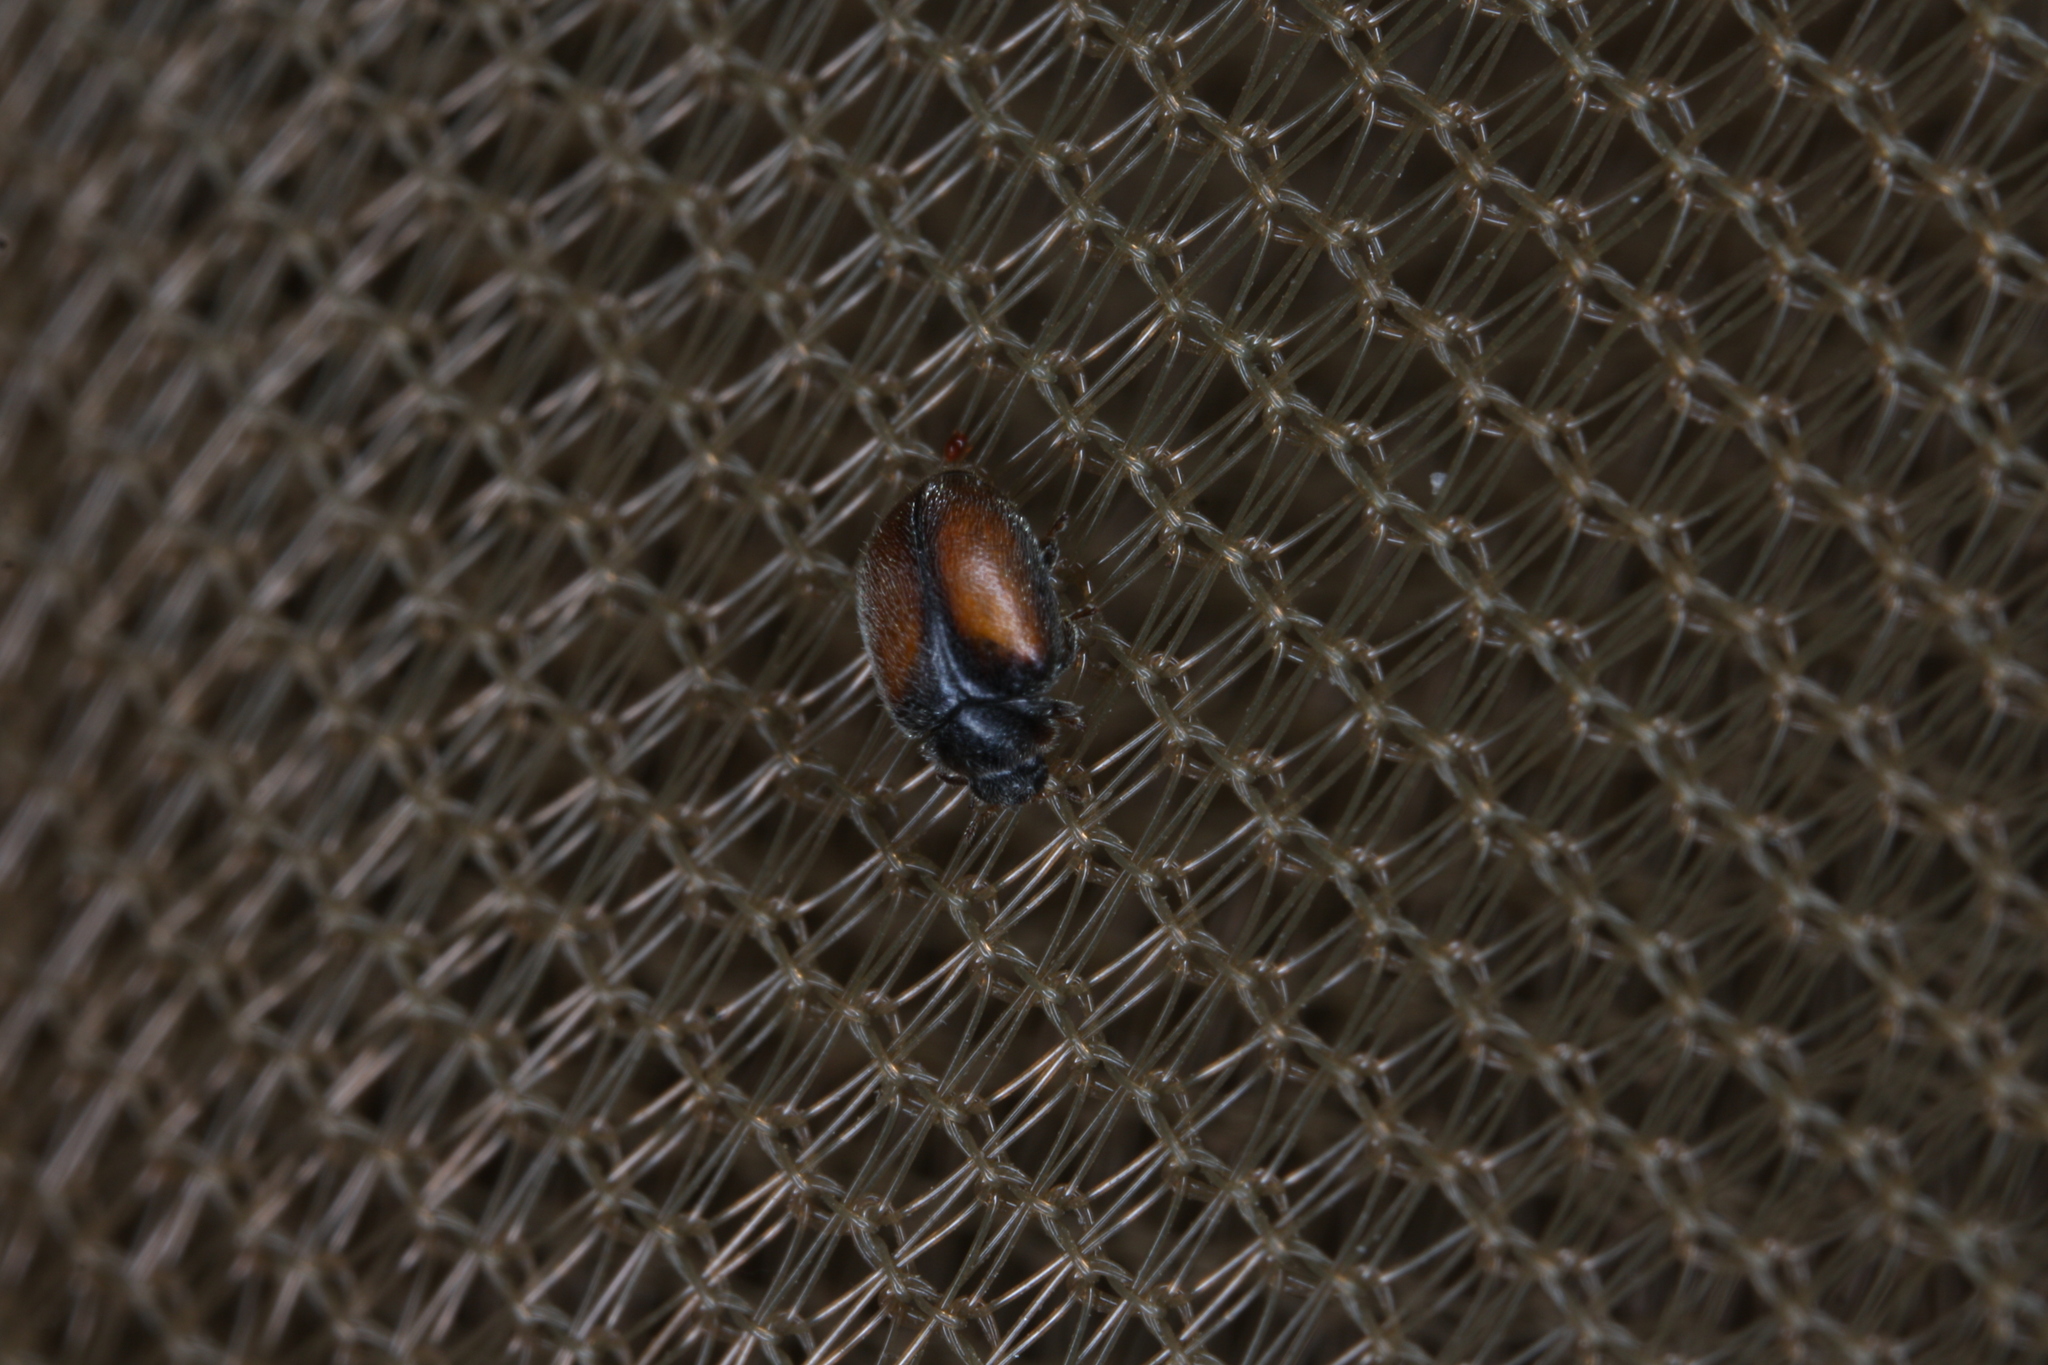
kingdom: Animalia
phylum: Arthropoda
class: Insecta
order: Coleoptera
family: Coccinellidae
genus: Scymnus
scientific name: Scymnus suturalis
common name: Ladybird beetle
